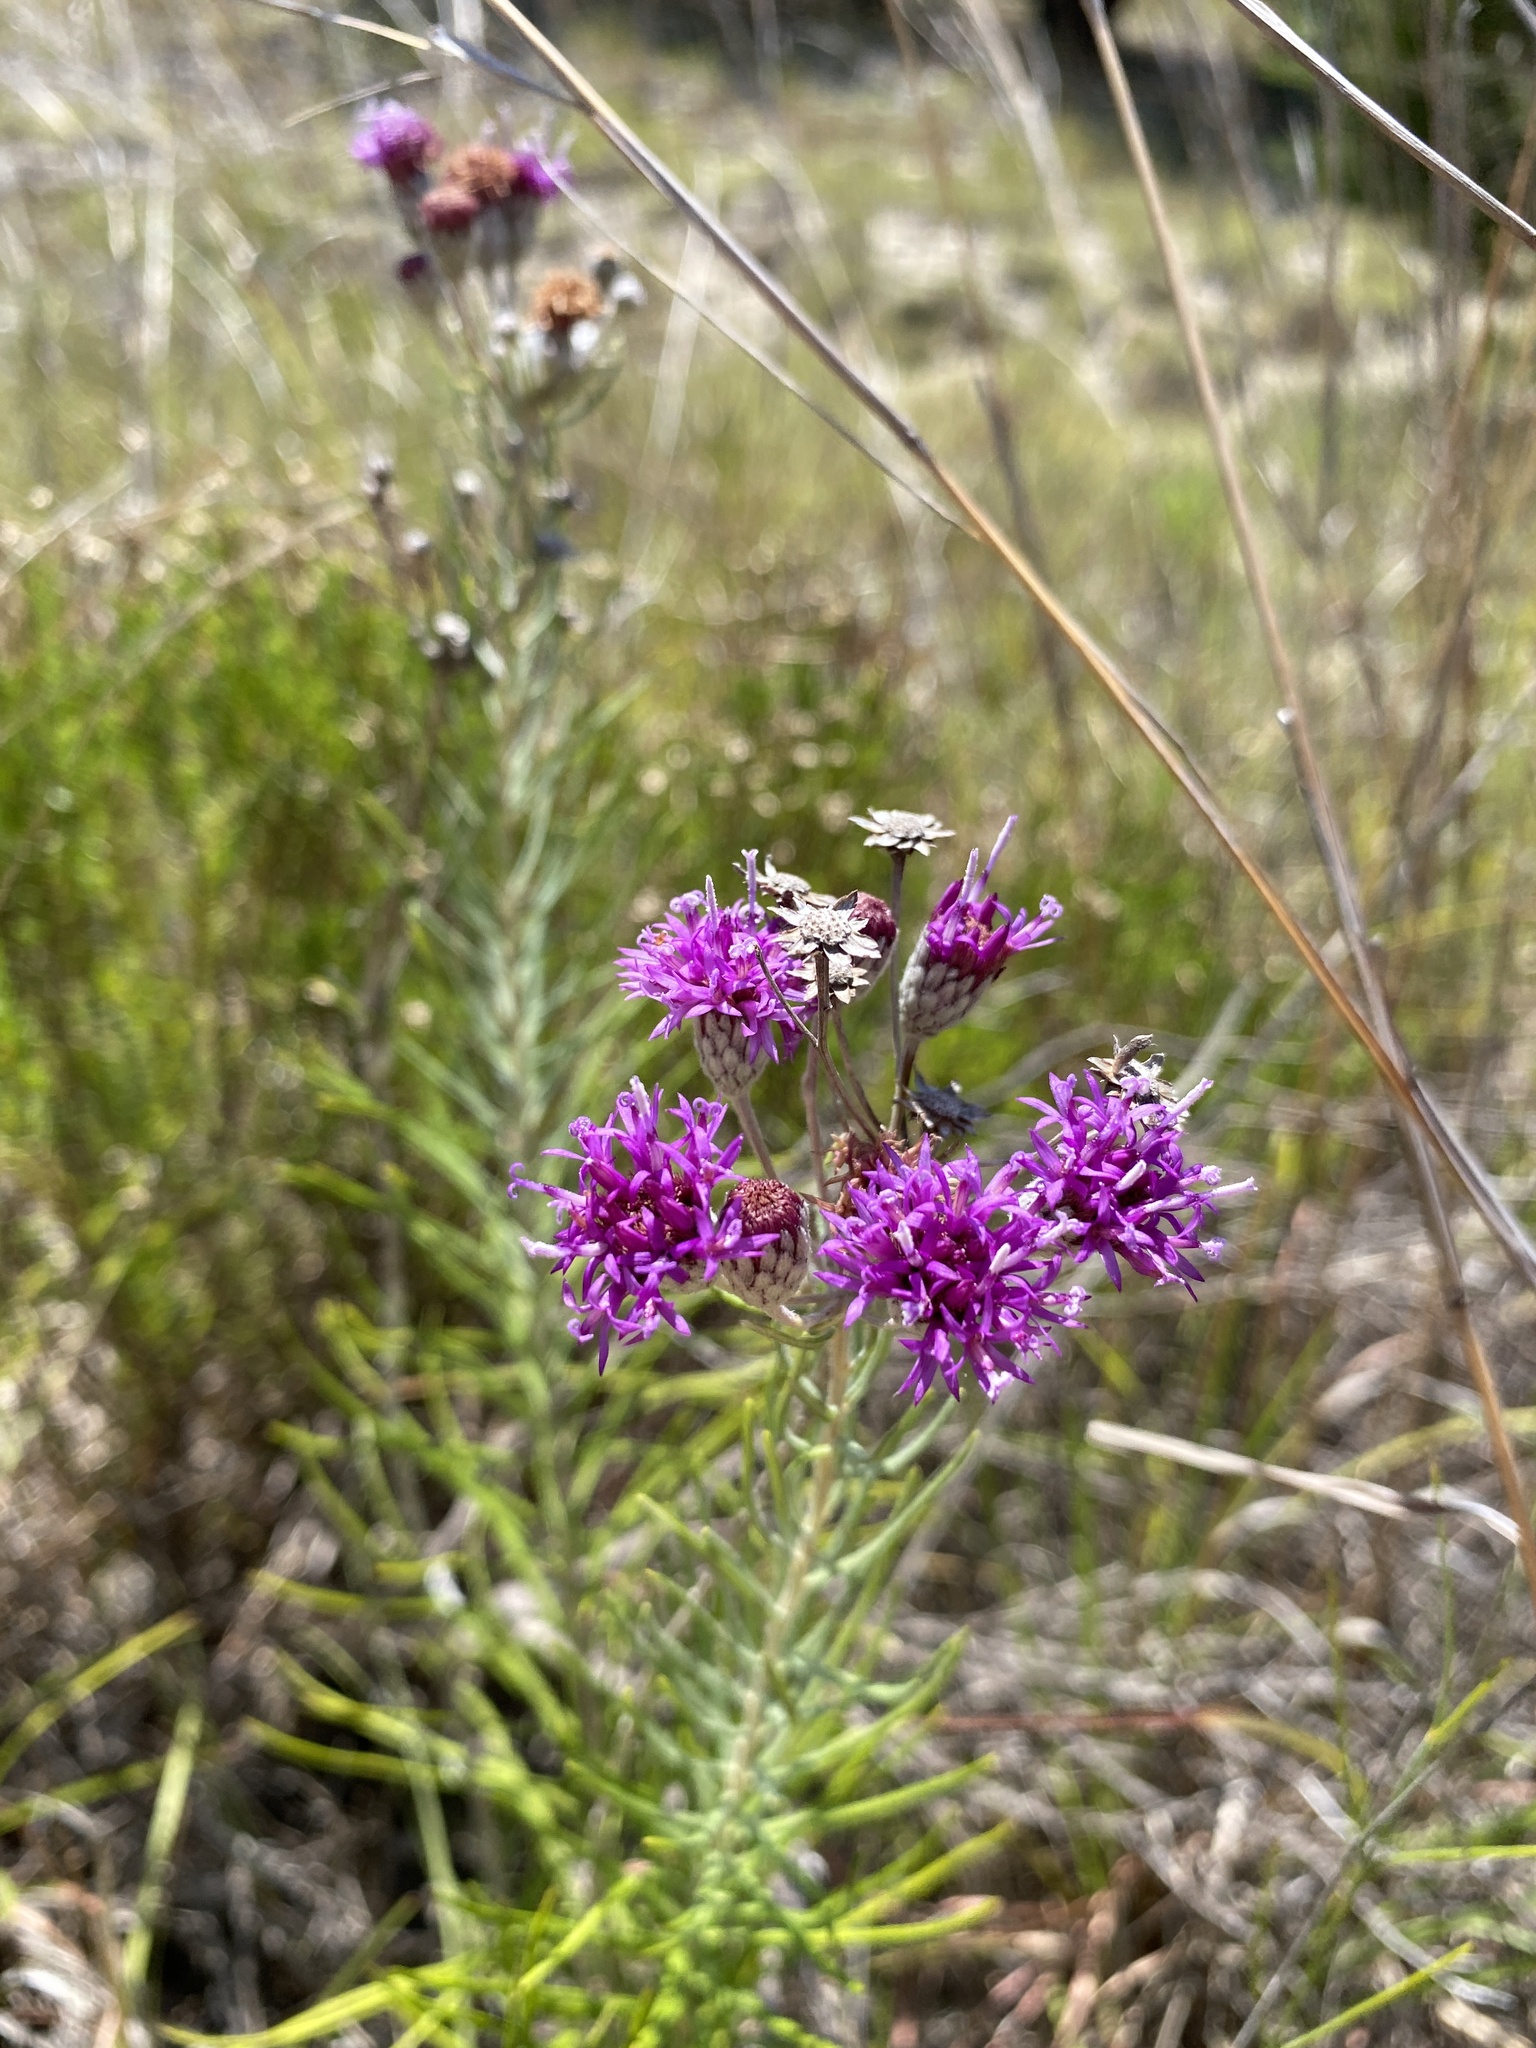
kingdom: Plantae
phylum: Tracheophyta
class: Magnoliopsida
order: Asterales
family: Asteraceae
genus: Vernonia
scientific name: Vernonia lindheimeri
